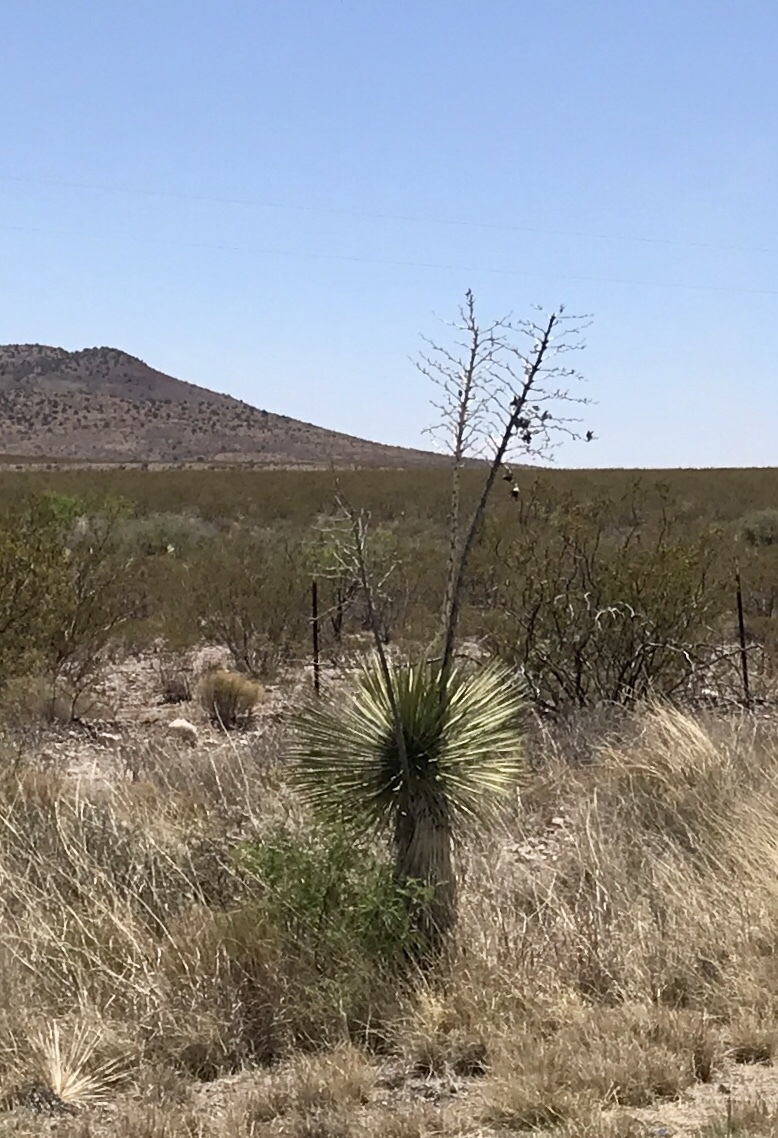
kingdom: Plantae
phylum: Tracheophyta
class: Liliopsida
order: Asparagales
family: Asparagaceae
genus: Yucca
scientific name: Yucca elata
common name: Palmella
